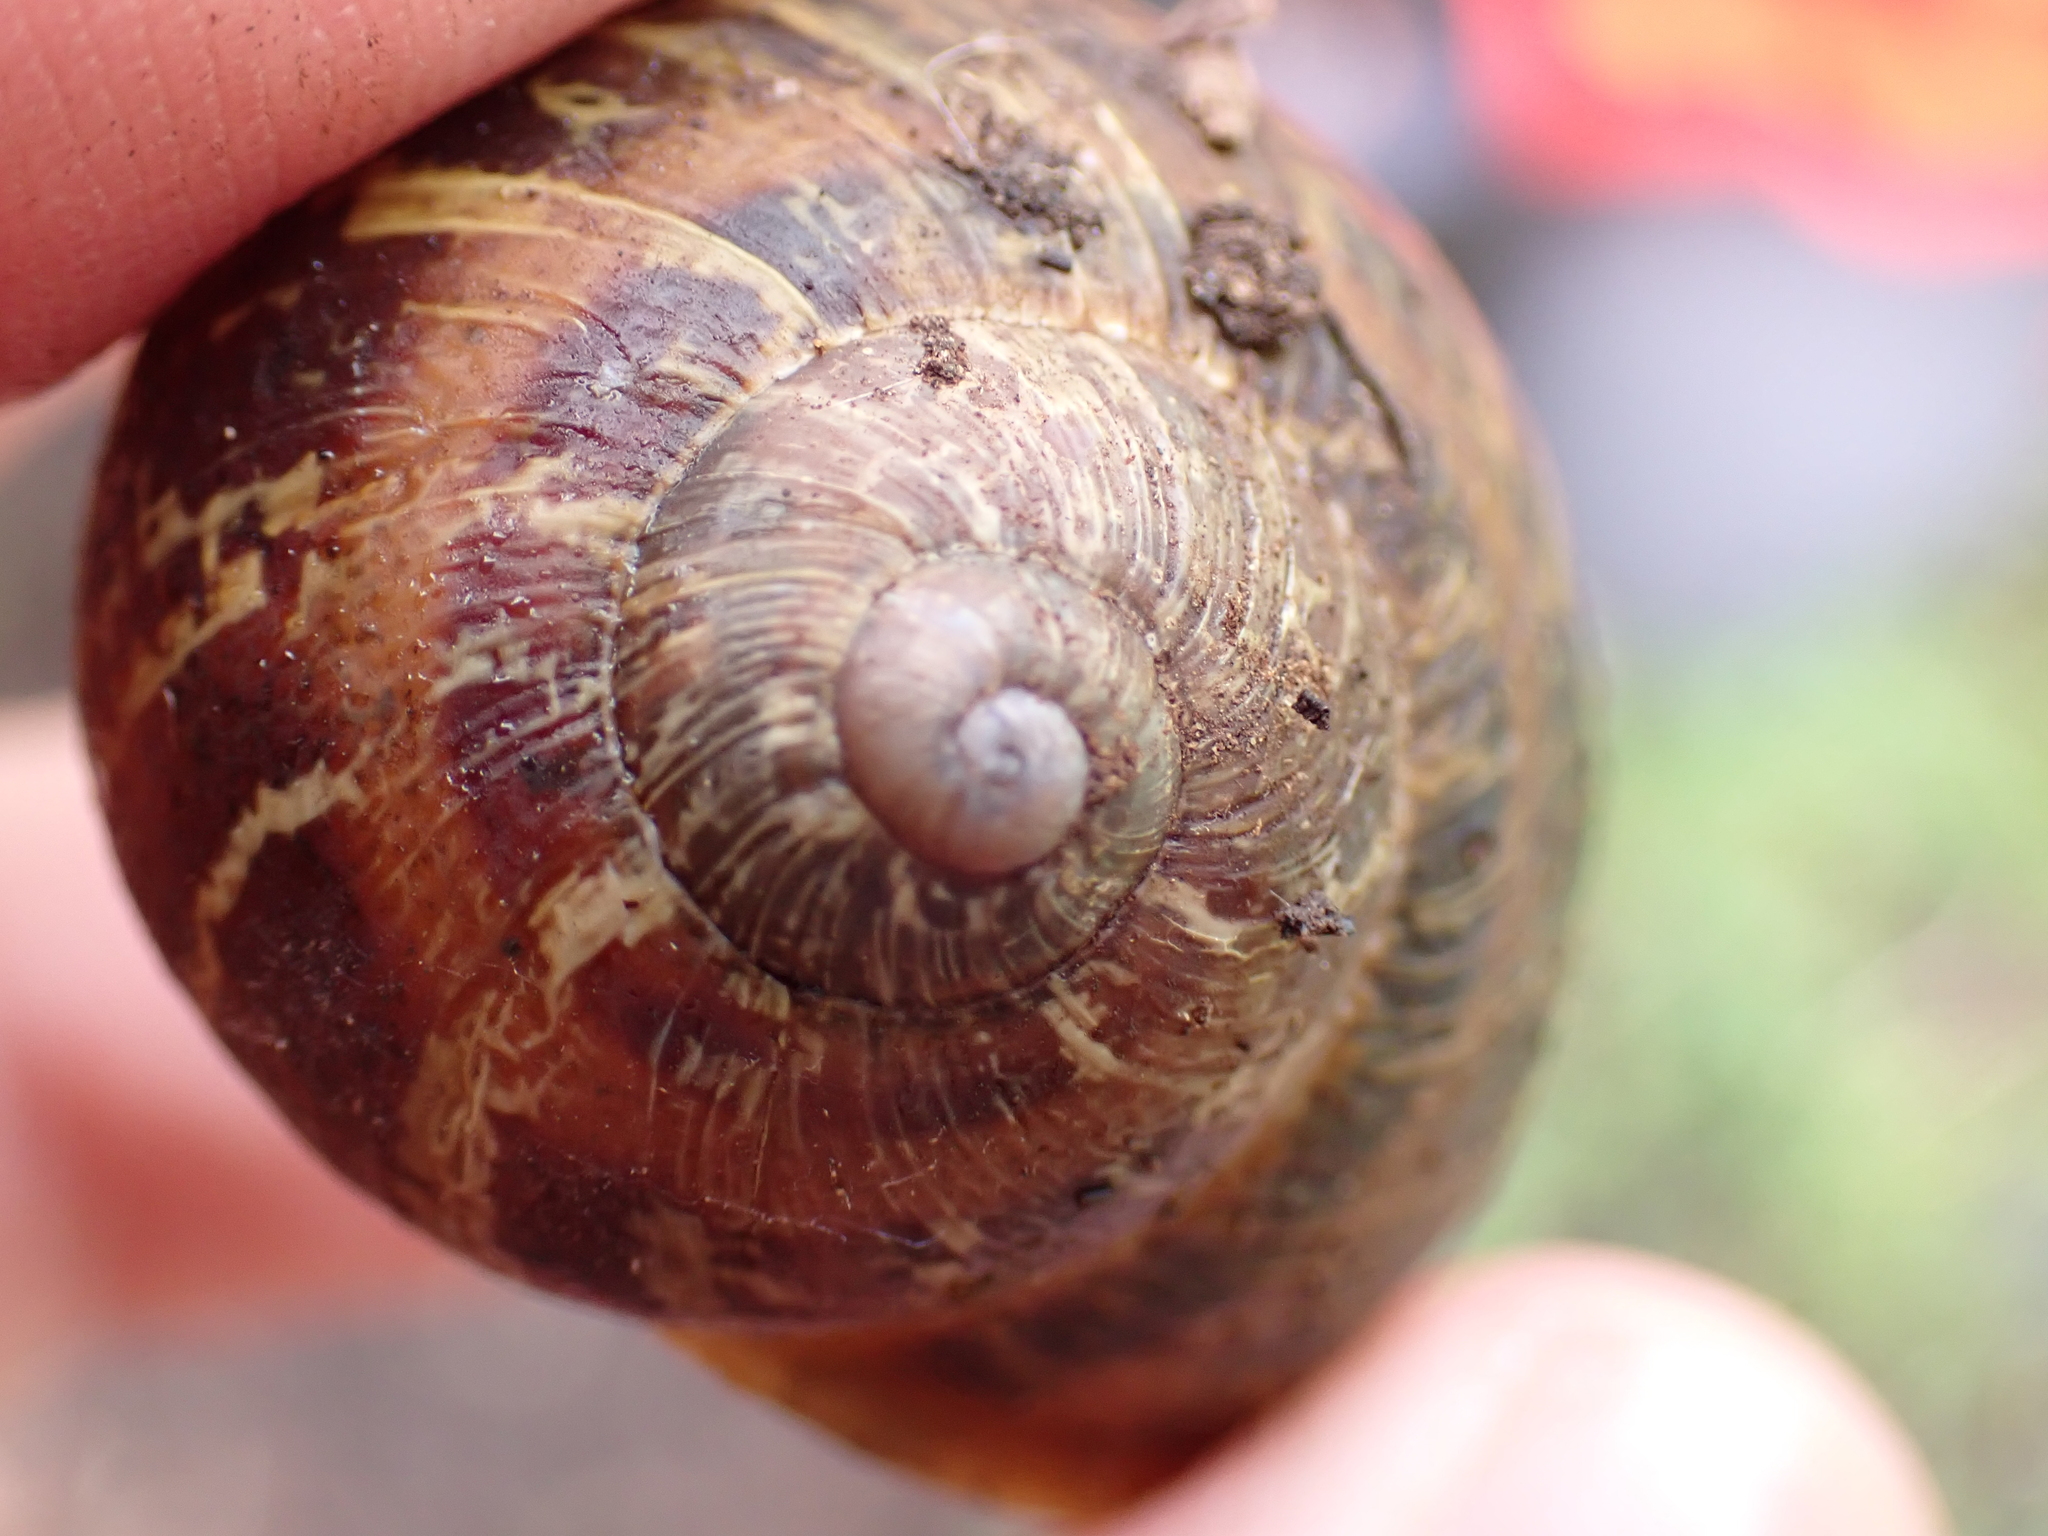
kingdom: Animalia
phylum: Mollusca
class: Gastropoda
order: Stylommatophora
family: Helicidae
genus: Cornu
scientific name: Cornu aspersum
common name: Brown garden snail
